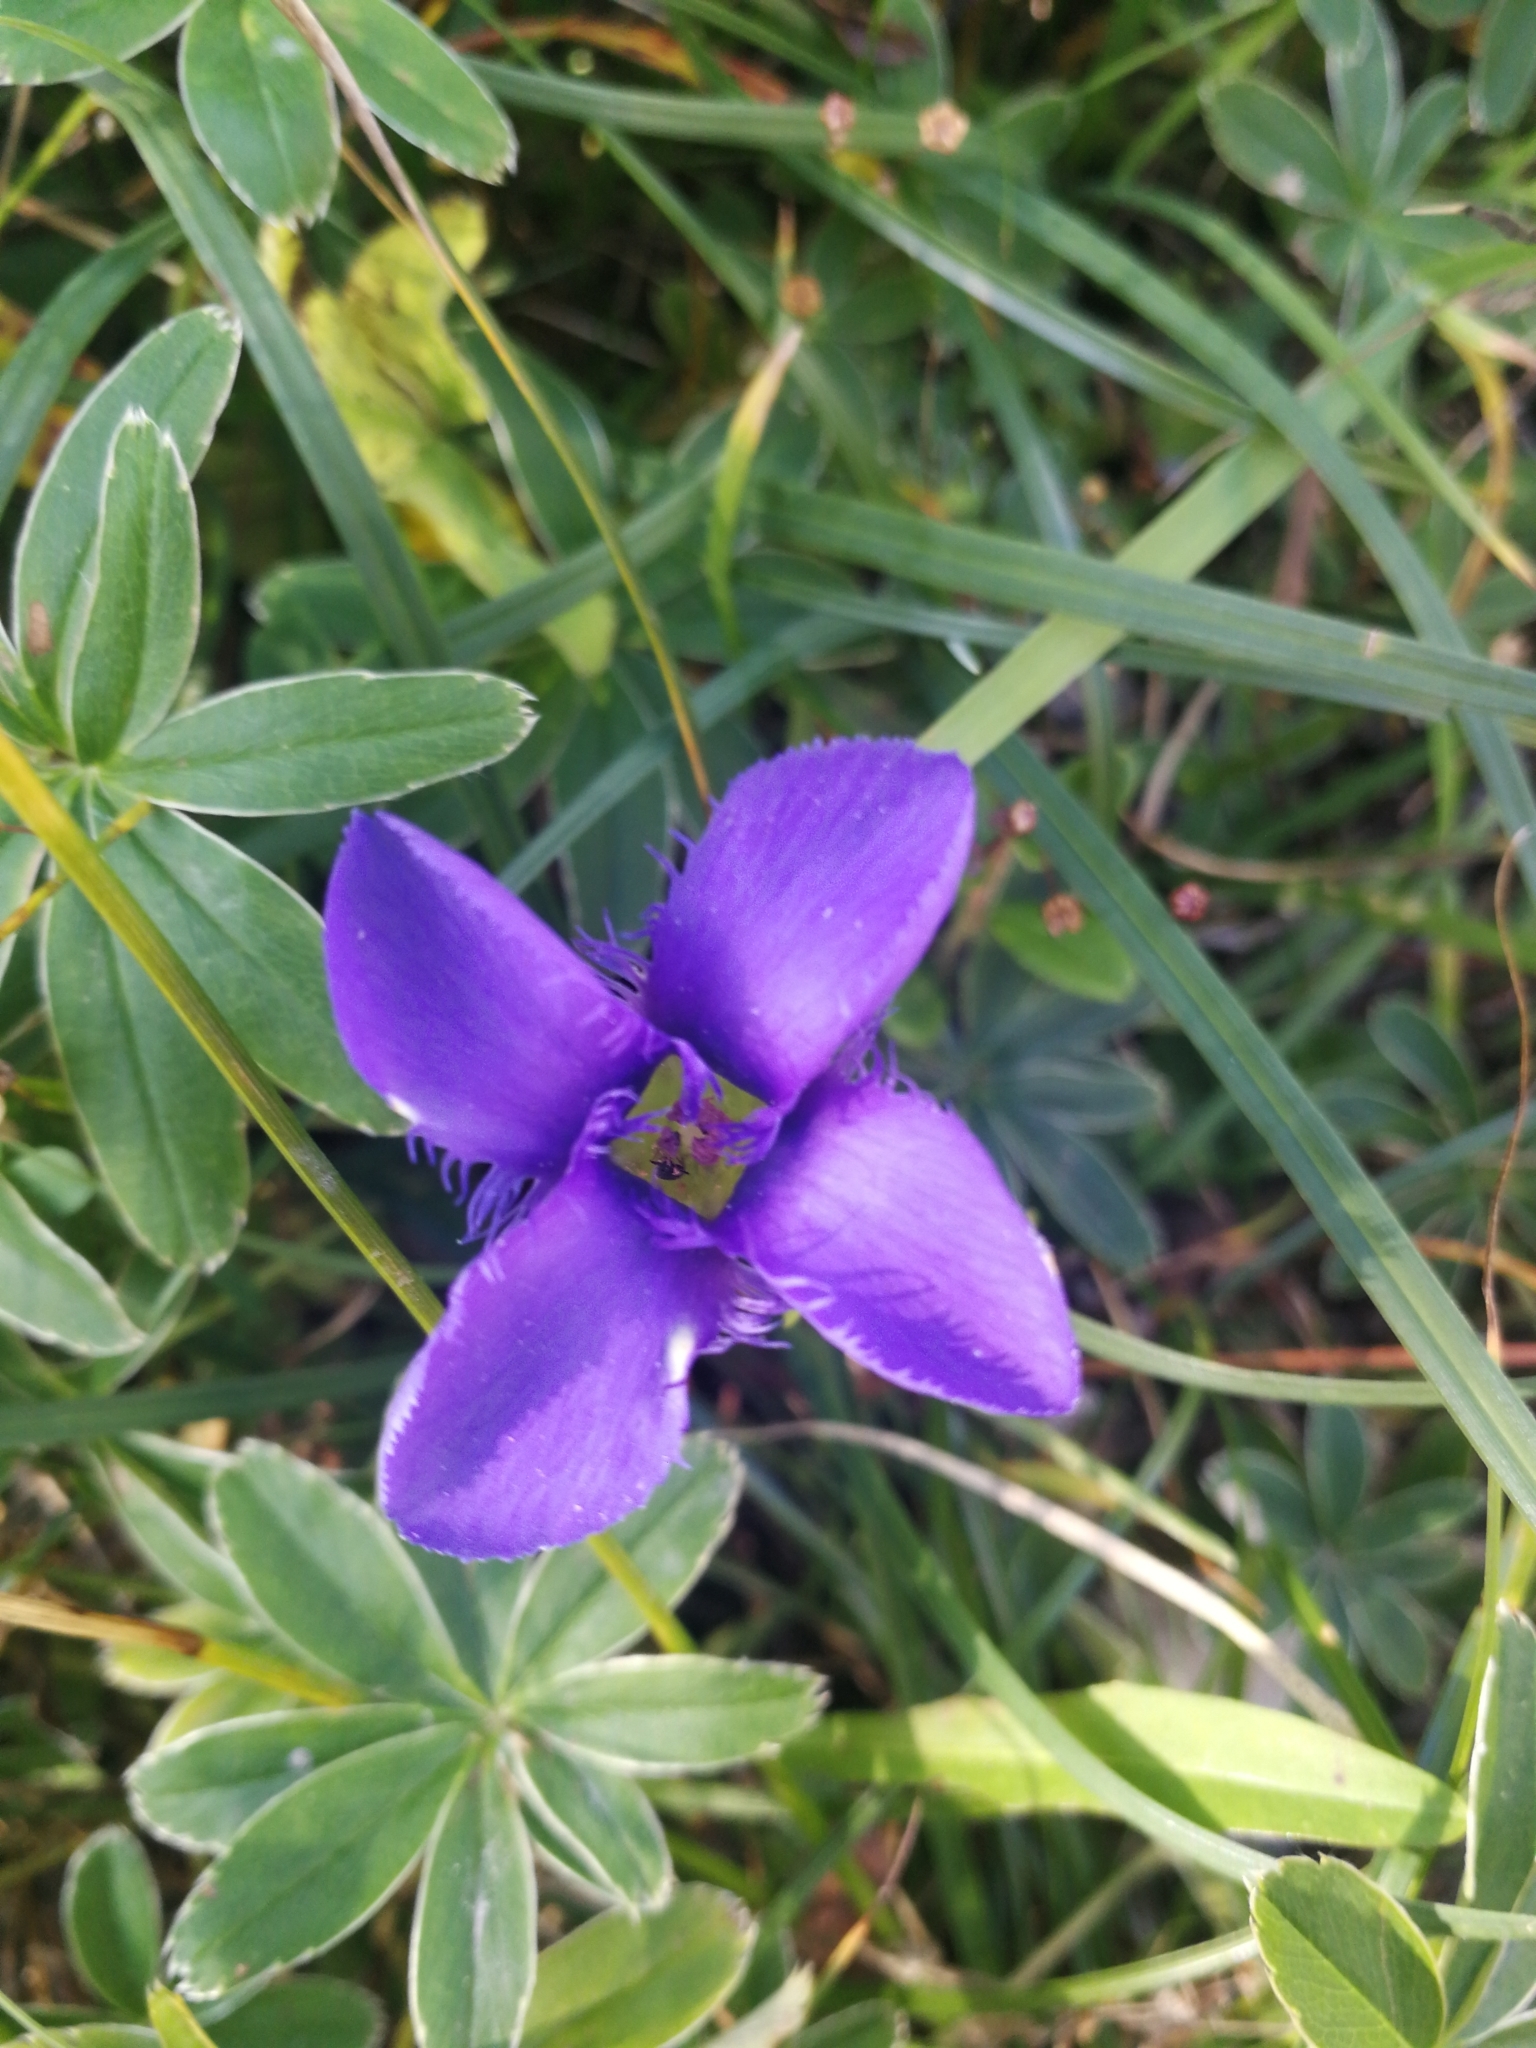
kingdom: Plantae
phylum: Tracheophyta
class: Magnoliopsida
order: Gentianales
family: Gentianaceae
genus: Gentianopsis
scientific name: Gentianopsis ciliata
